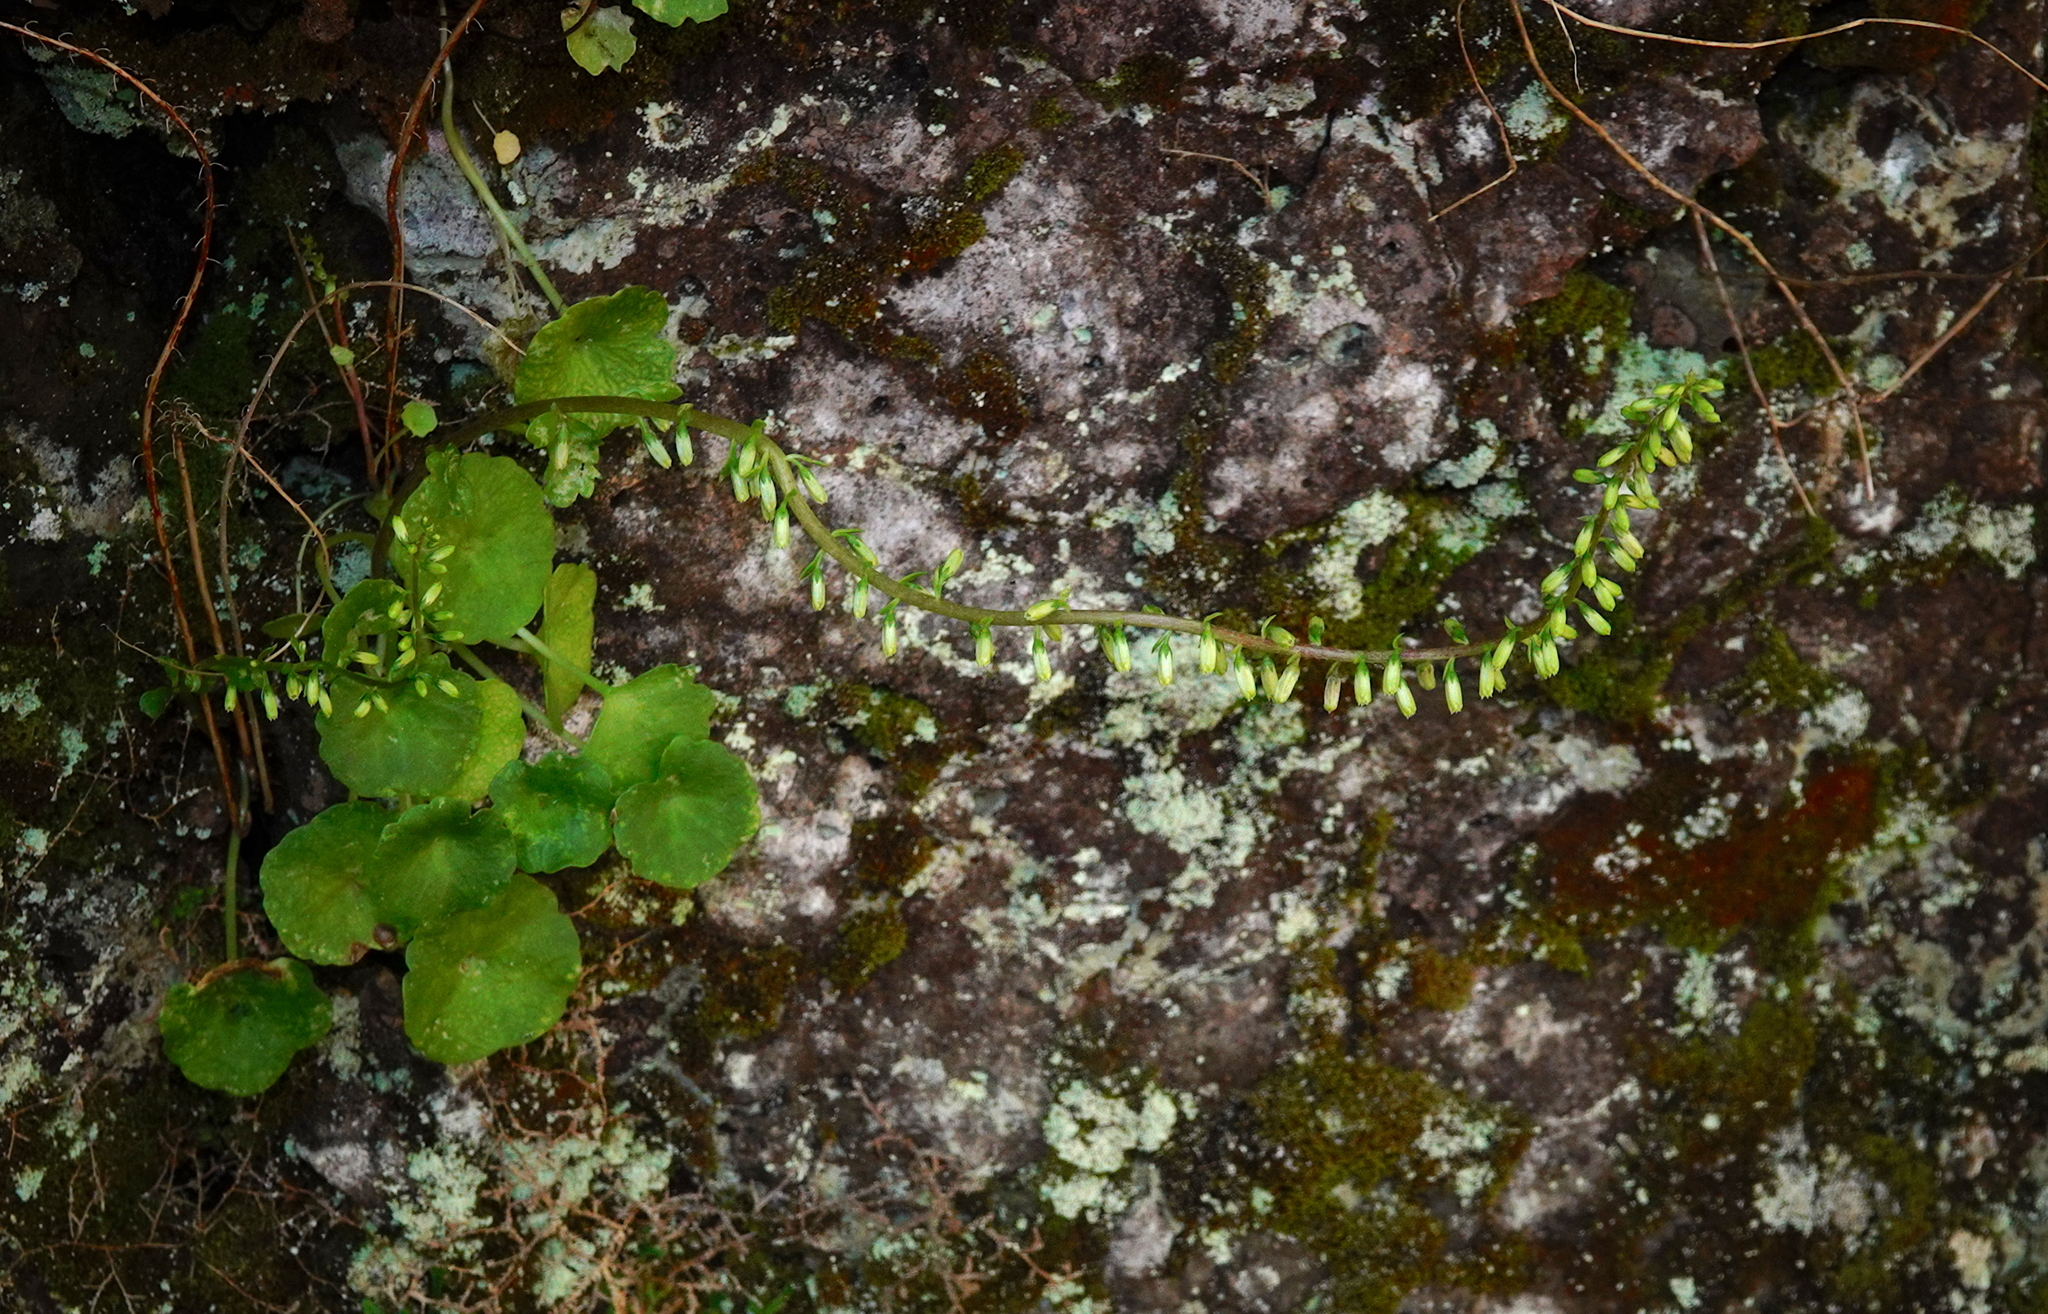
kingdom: Plantae
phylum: Tracheophyta
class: Magnoliopsida
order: Saxifragales
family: Crassulaceae
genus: Umbilicus
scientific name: Umbilicus rupestris
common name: Navelwort
